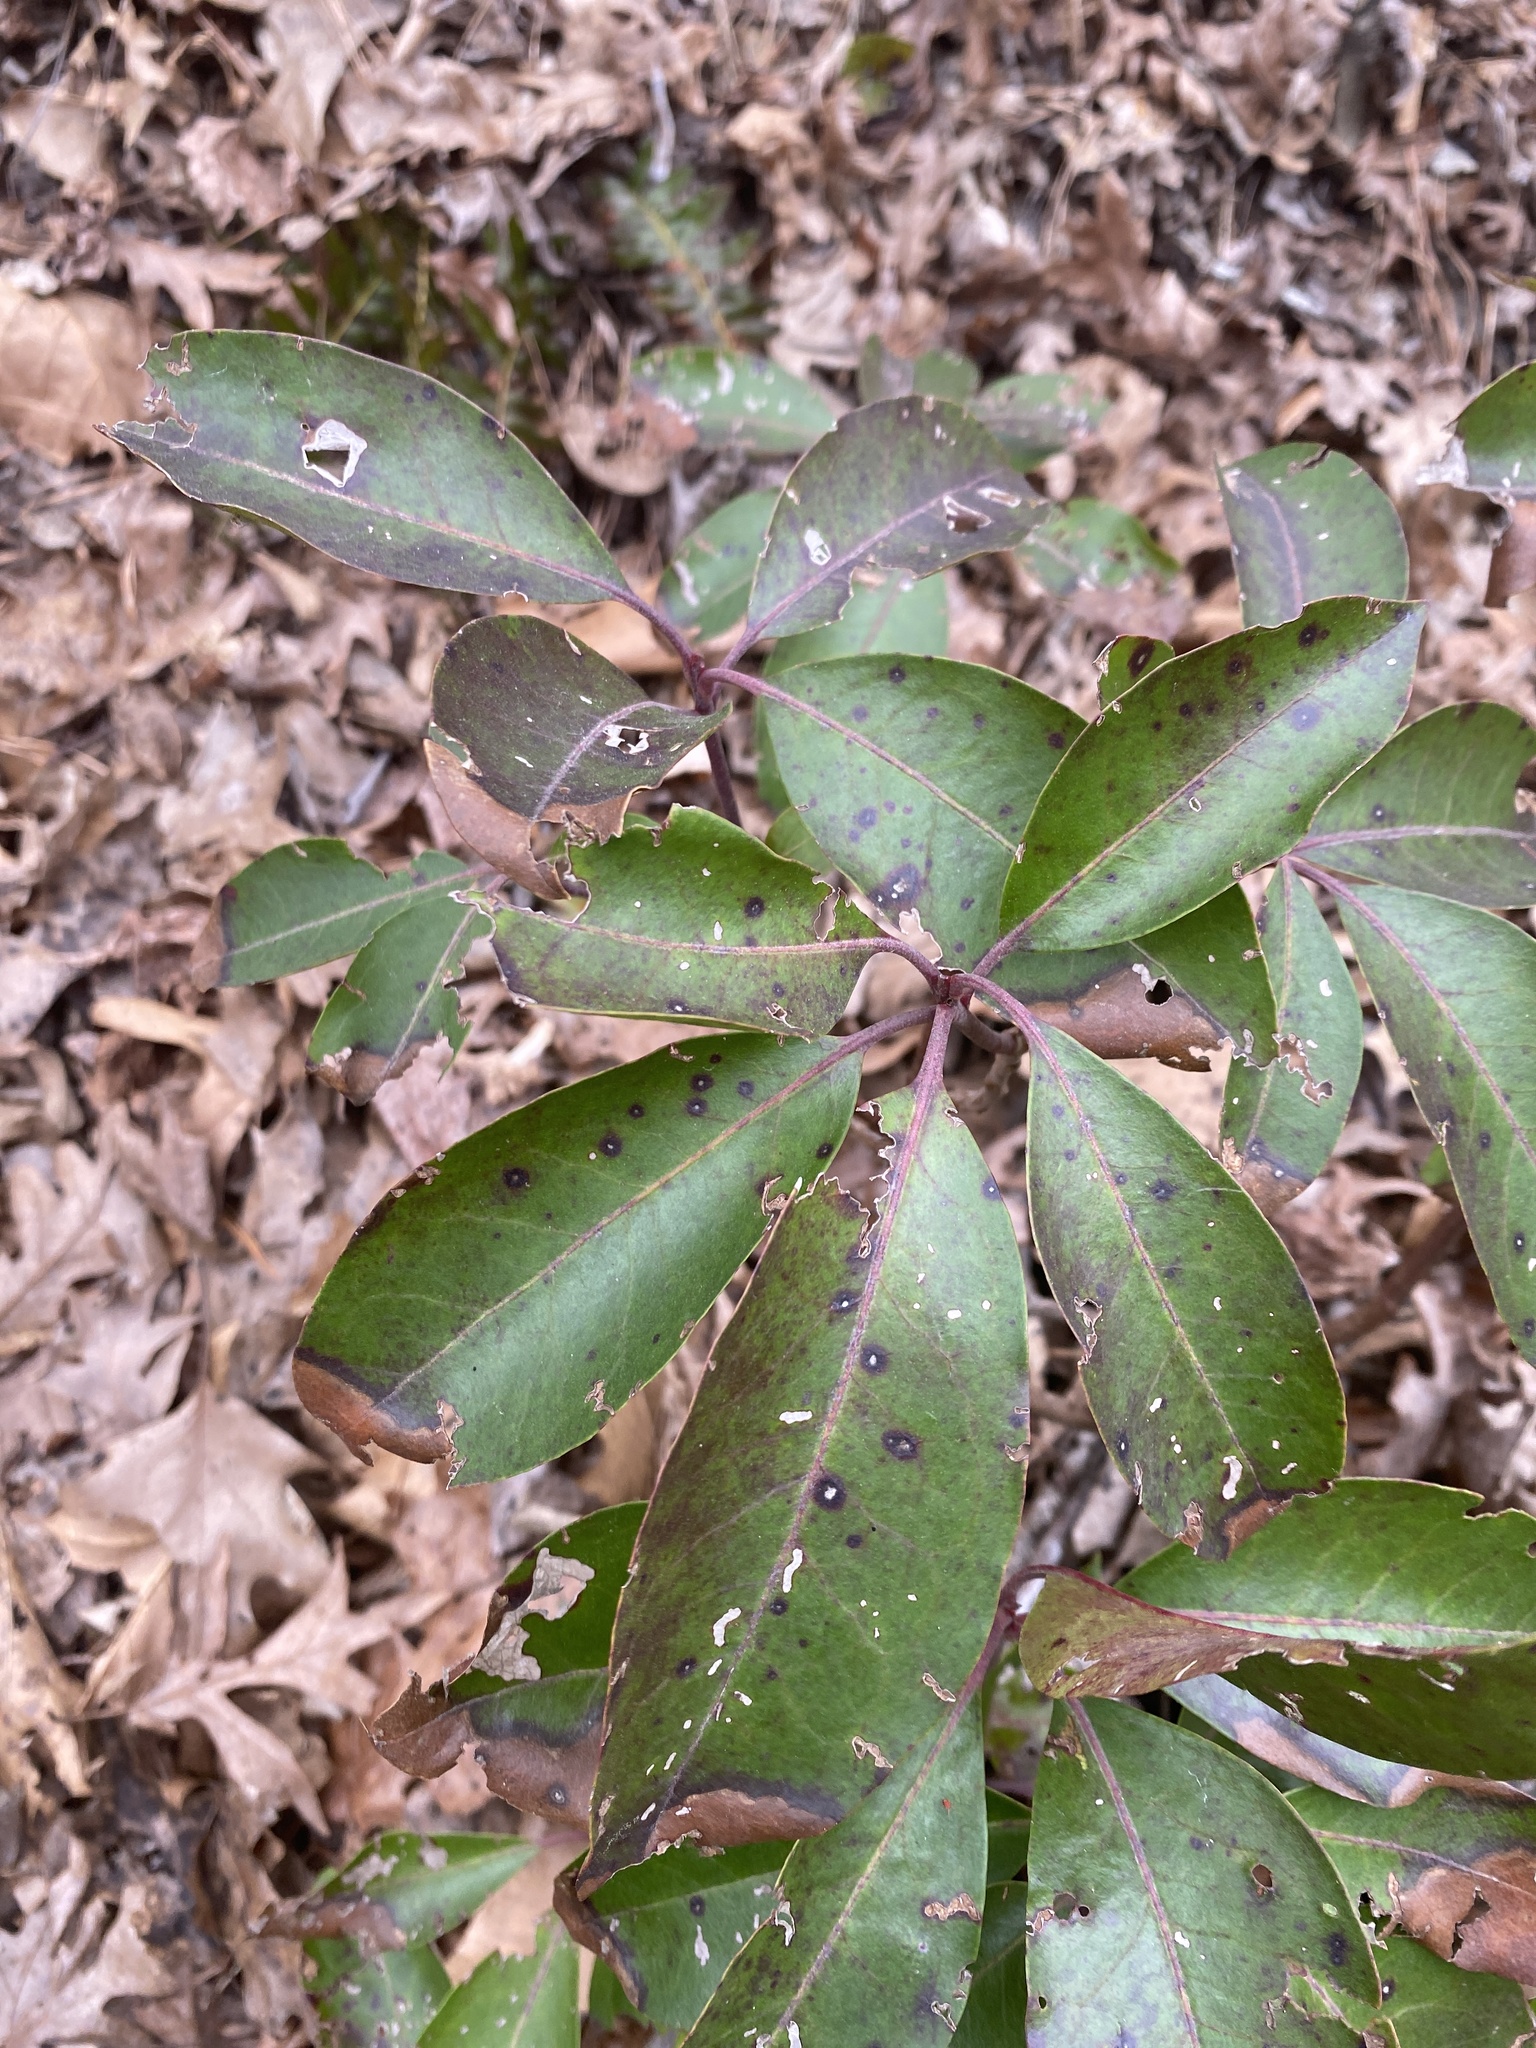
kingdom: Plantae
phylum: Tracheophyta
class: Magnoliopsida
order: Ericales
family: Ericaceae
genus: Kalmia
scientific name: Kalmia latifolia
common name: Mountain-laurel
